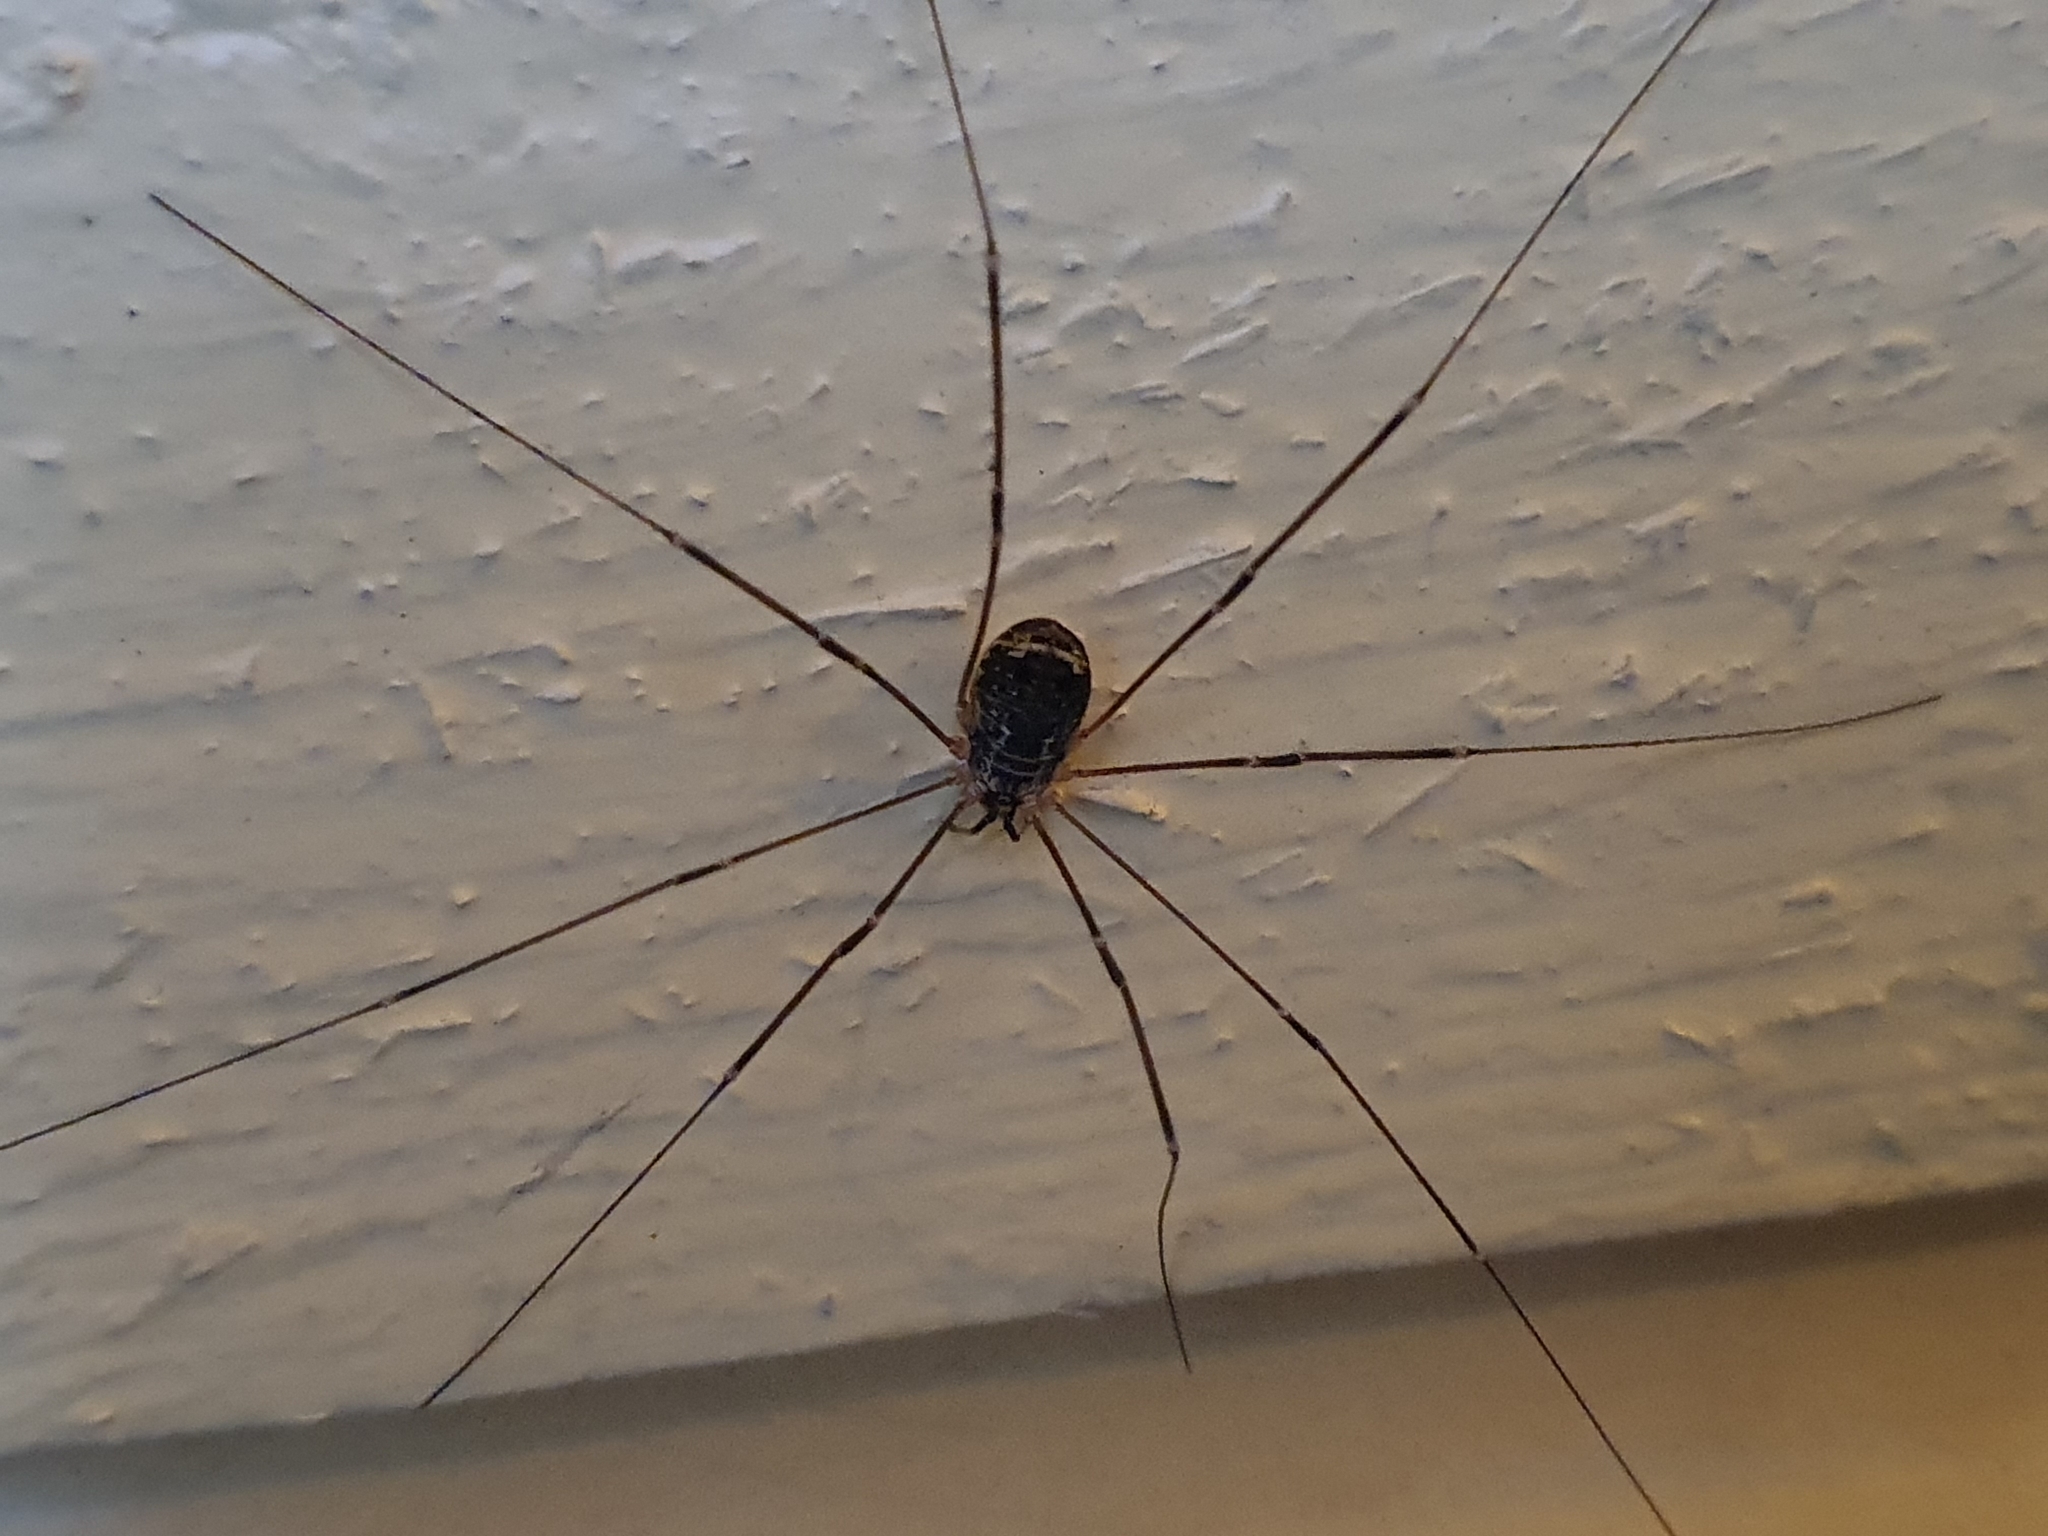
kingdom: Animalia
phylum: Arthropoda
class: Arachnida
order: Opiliones
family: Sclerosomatidae
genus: Leiobunum
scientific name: Leiobunum gracile
